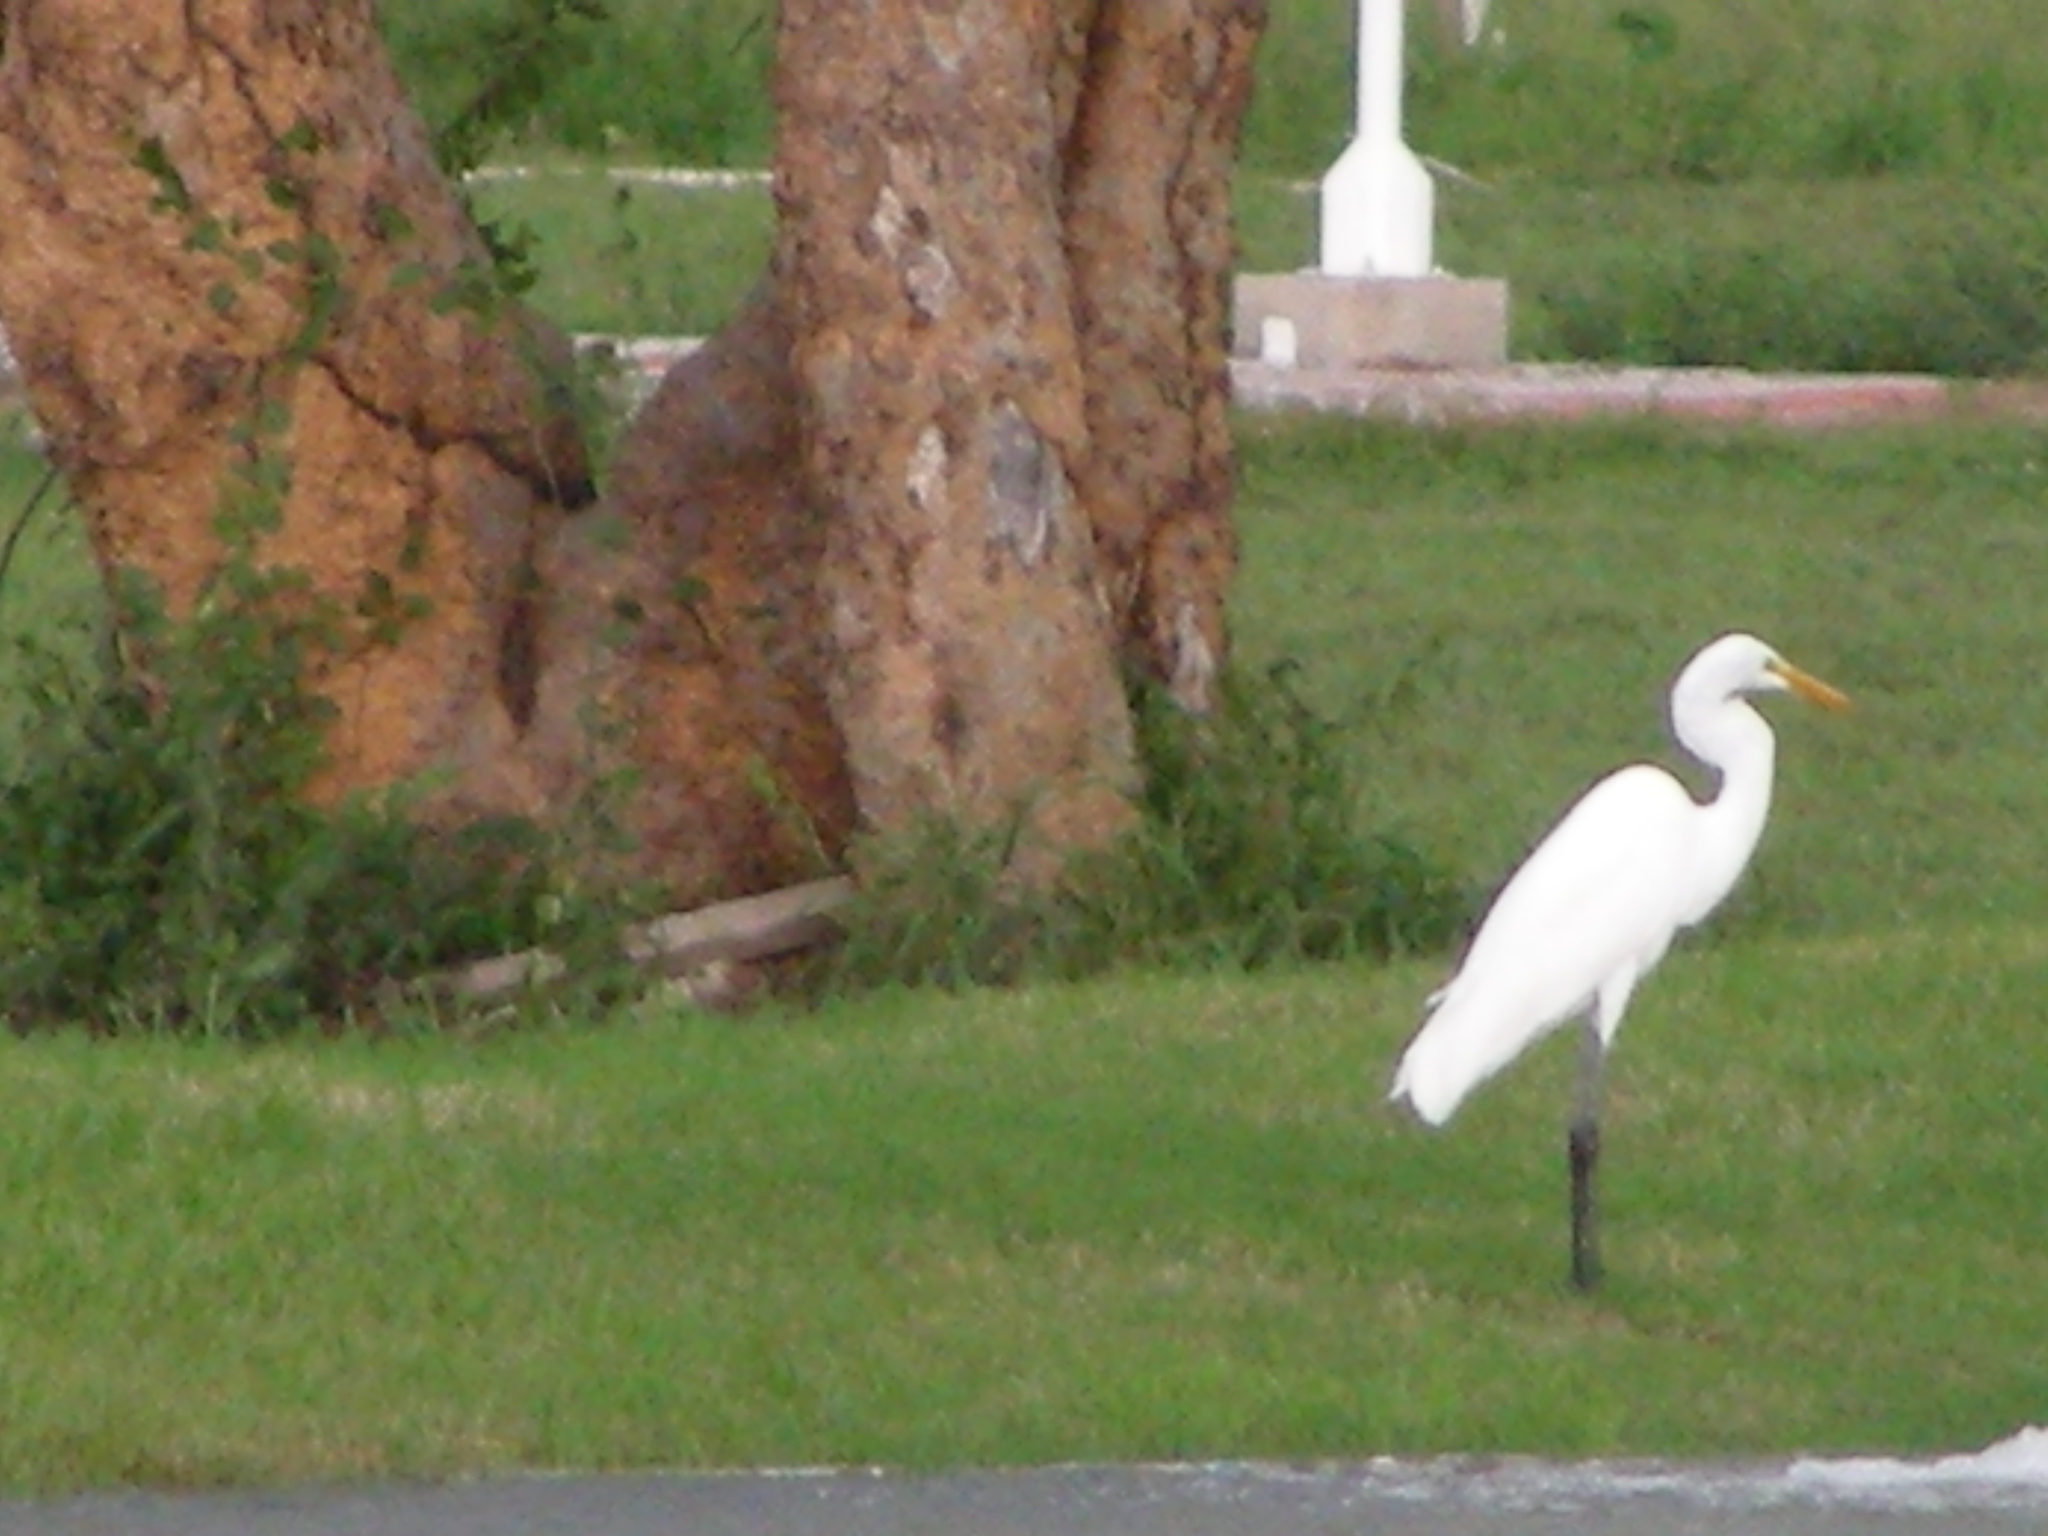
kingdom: Animalia
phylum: Chordata
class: Aves
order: Pelecaniformes
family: Ardeidae
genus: Ardea
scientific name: Ardea alba
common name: Great egret
